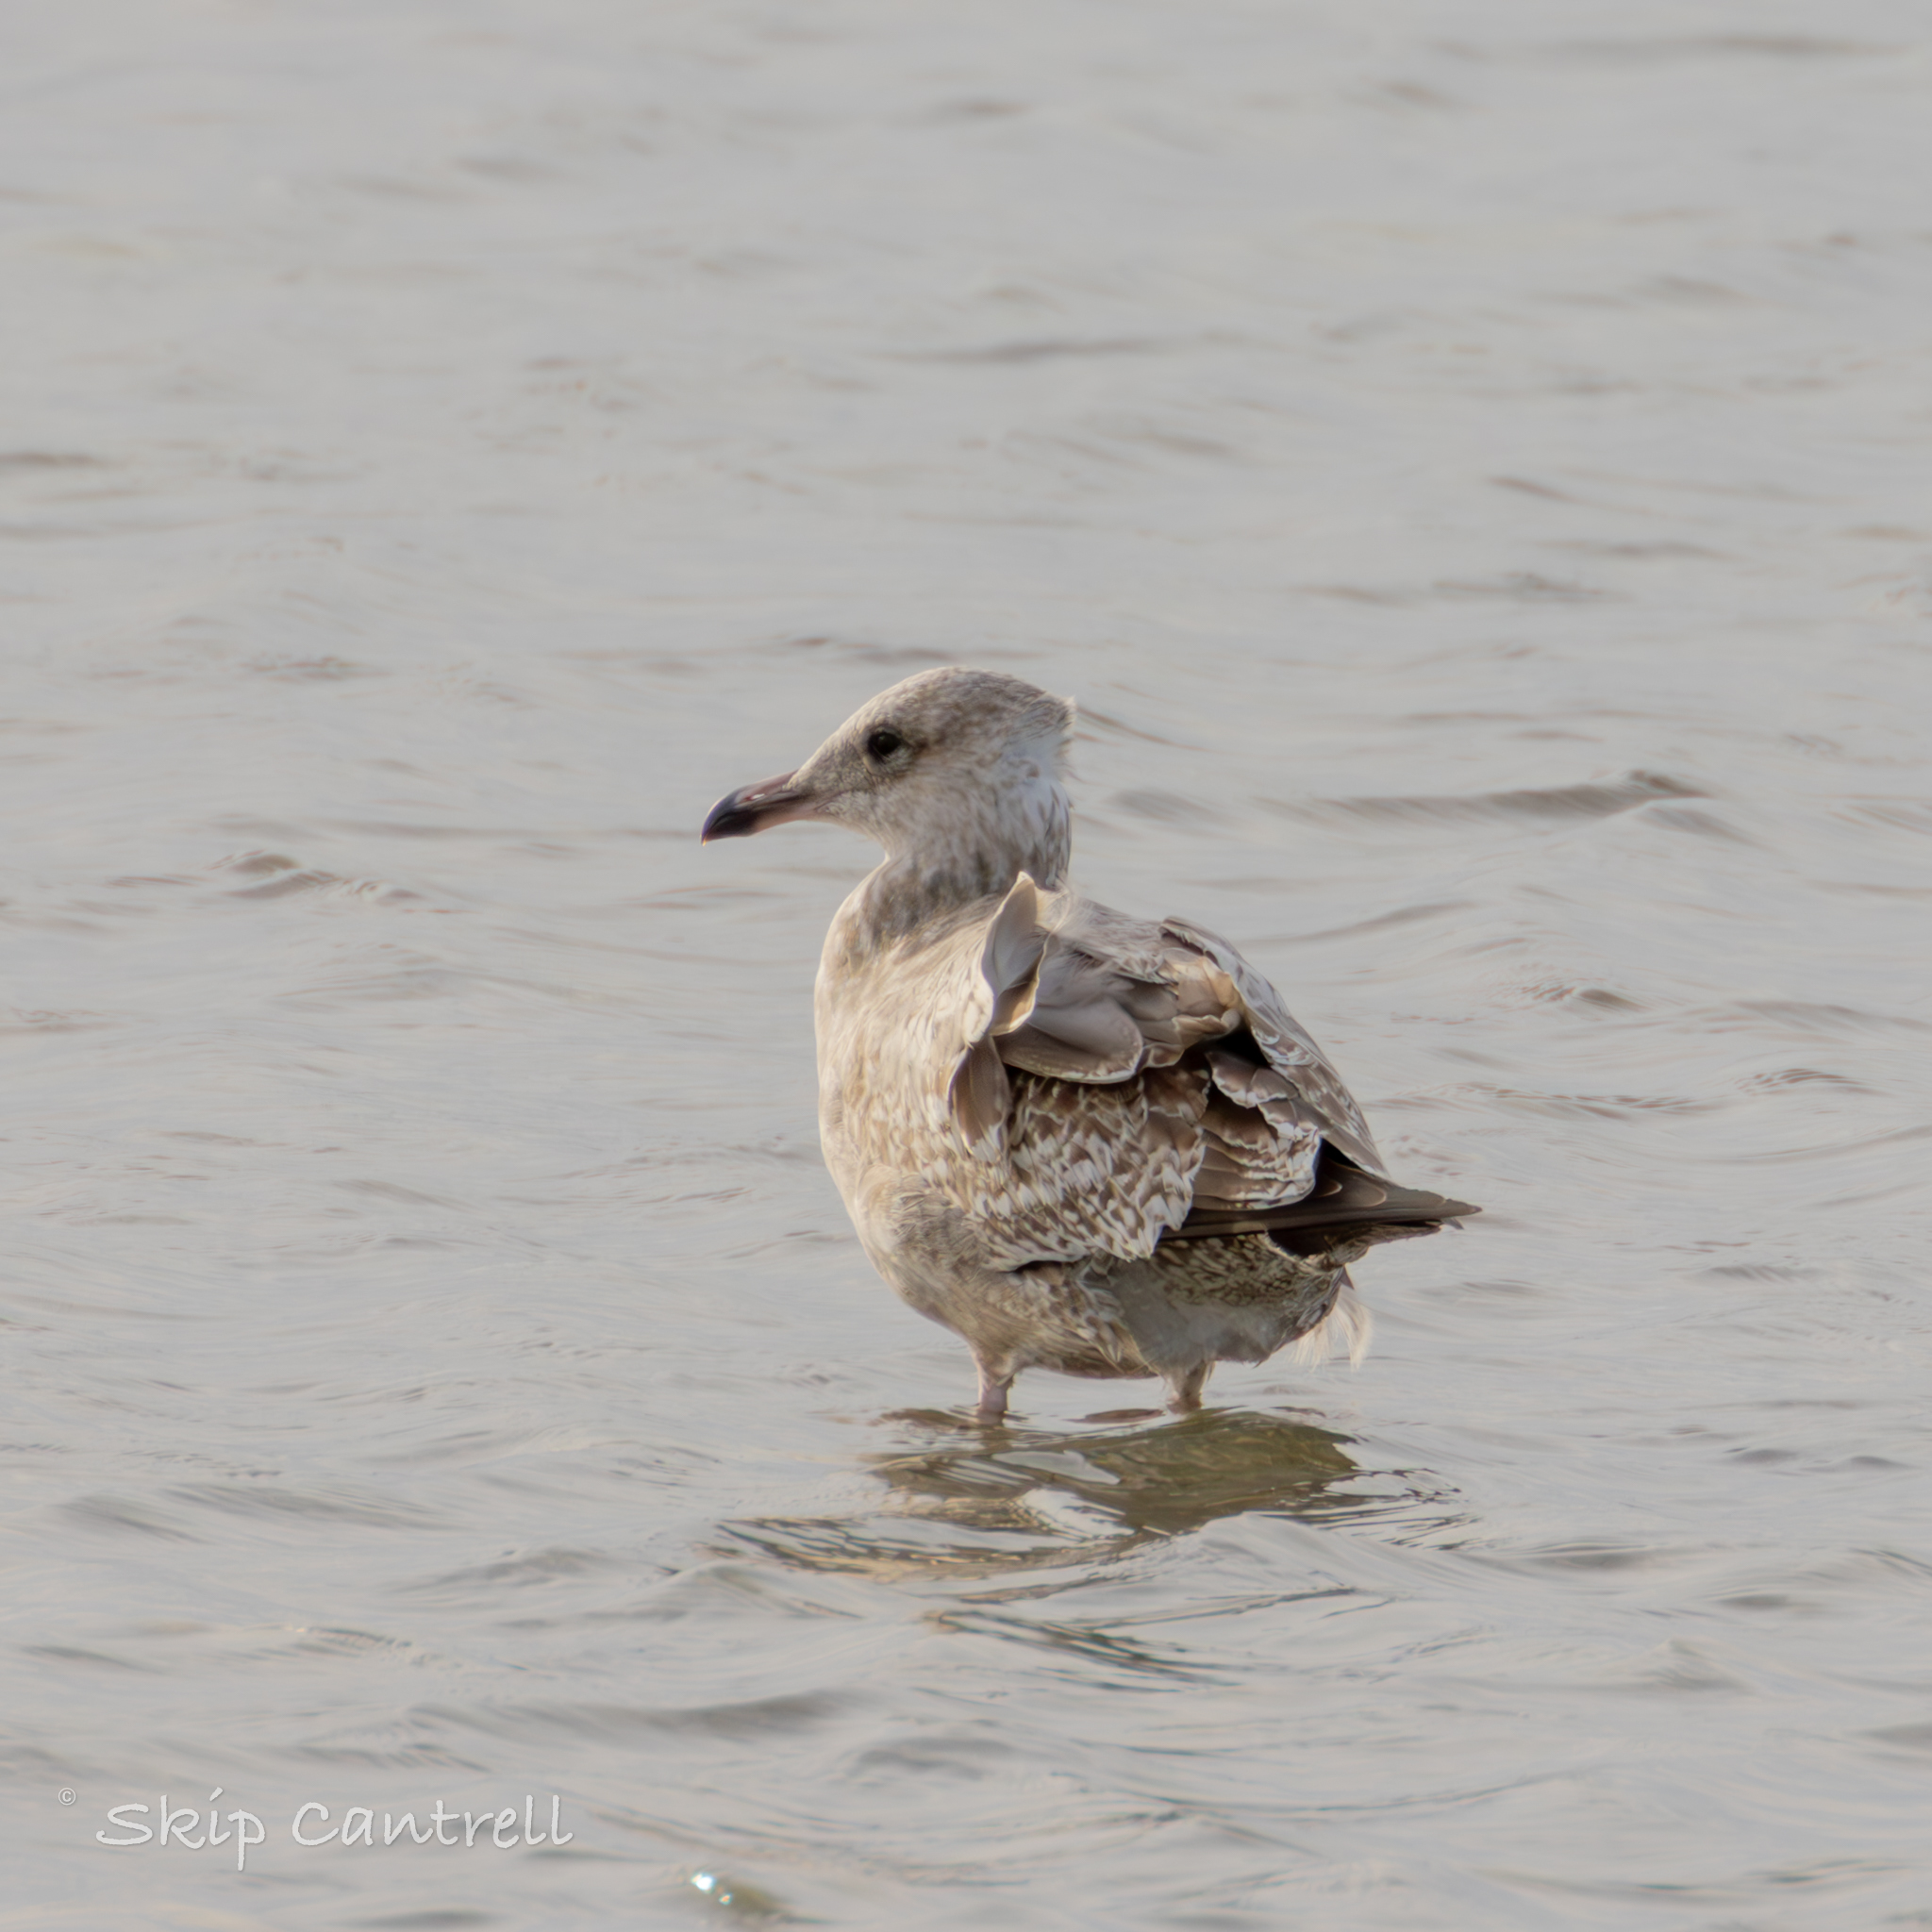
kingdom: Animalia
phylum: Chordata
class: Aves
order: Charadriiformes
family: Laridae
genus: Larus
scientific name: Larus argentatus
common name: Herring gull
